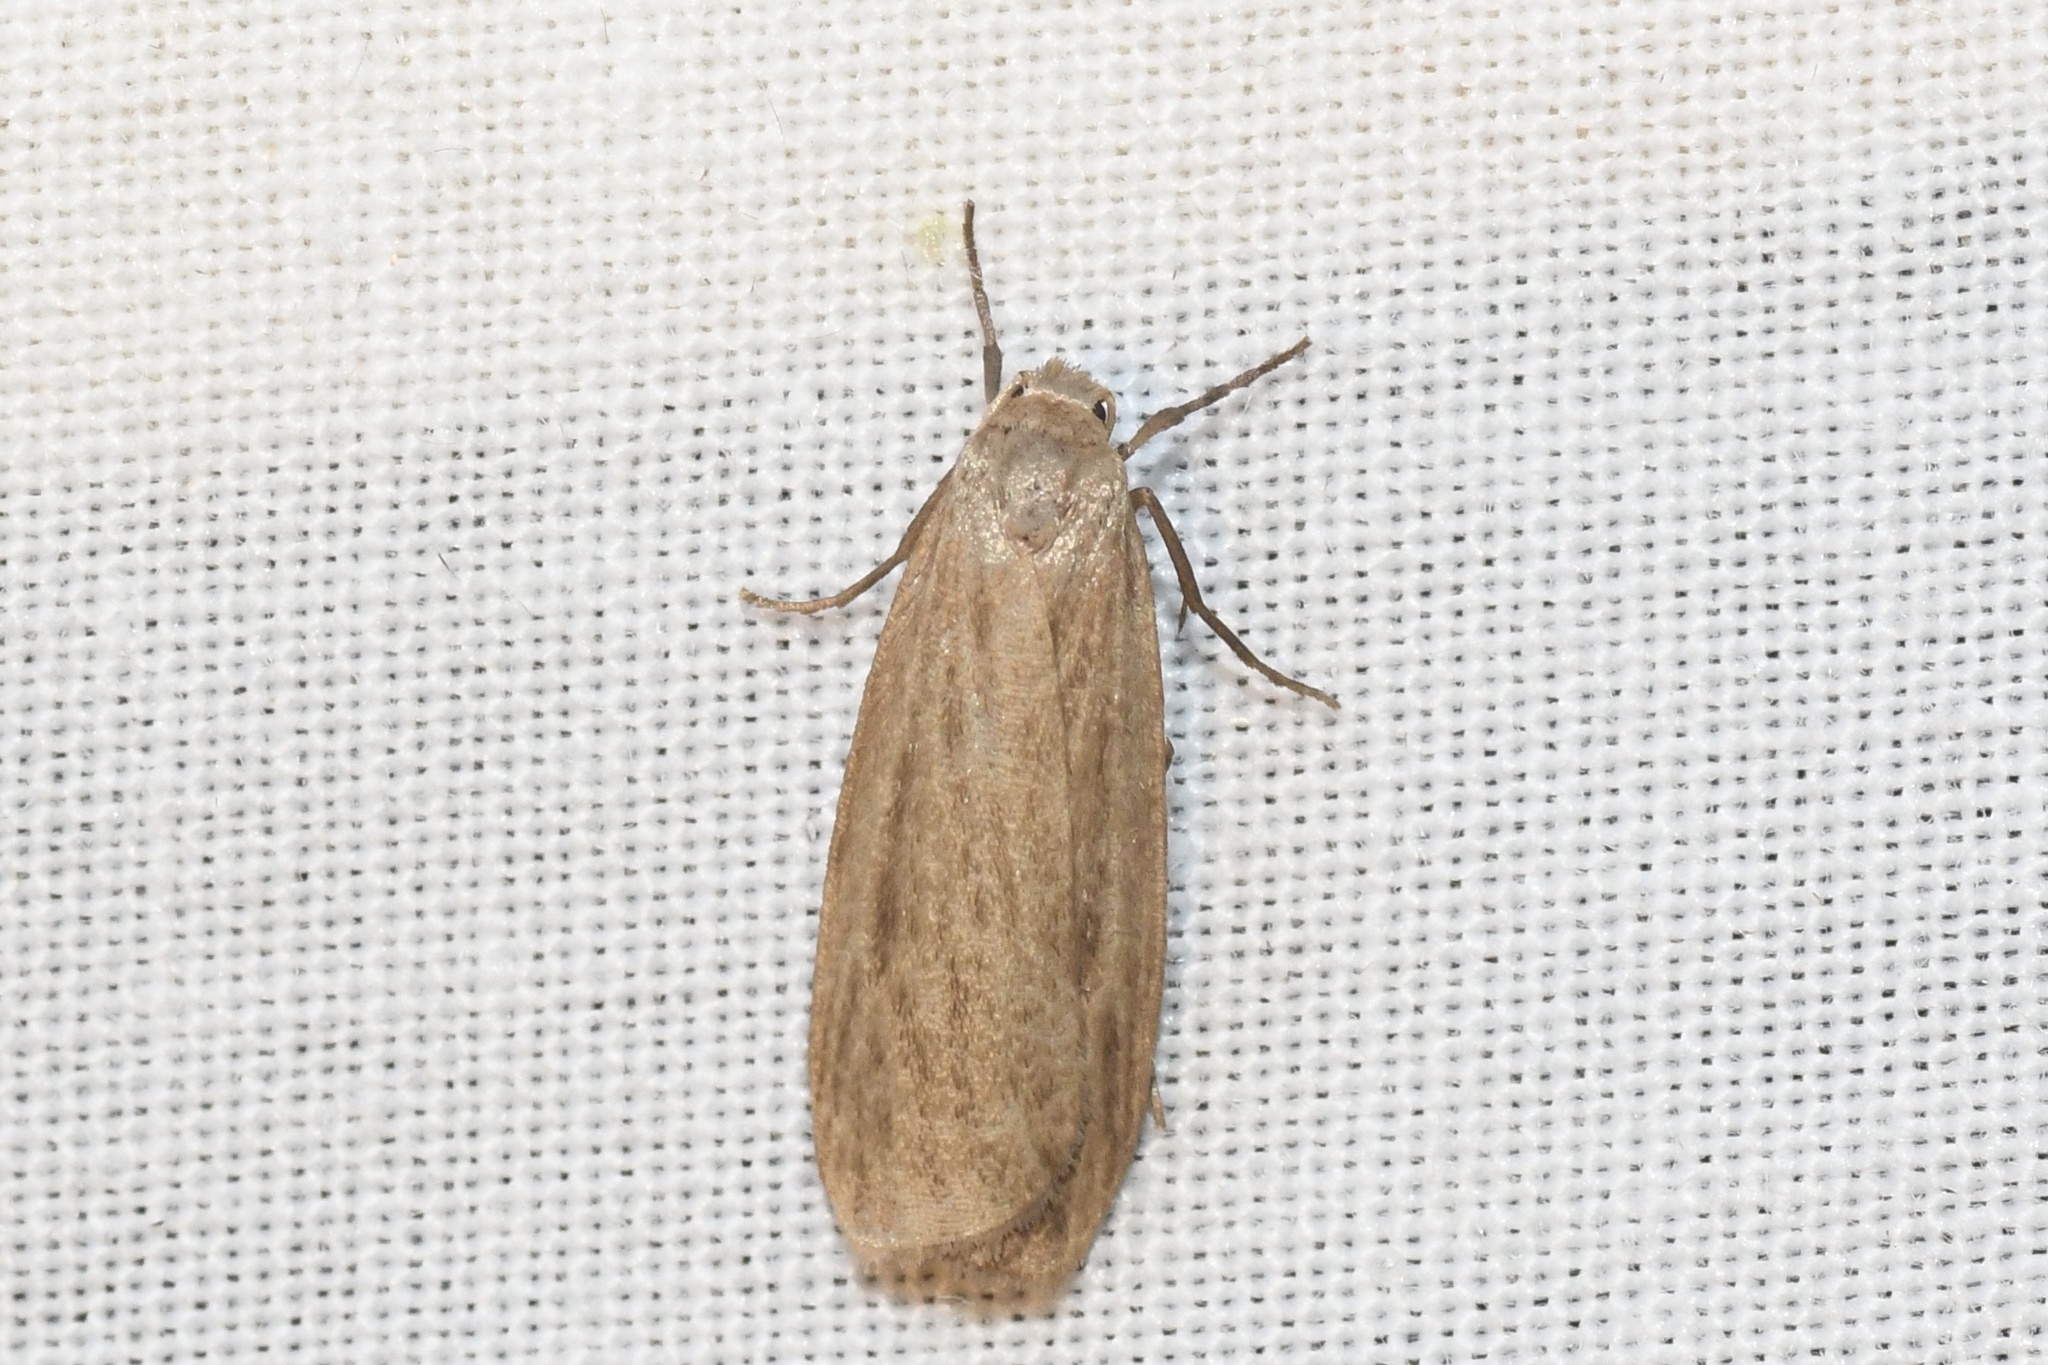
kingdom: Animalia
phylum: Arthropoda
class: Insecta
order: Lepidoptera
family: Erebidae
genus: Crambidia
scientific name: Crambidia pallida
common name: Pale lichen moth
